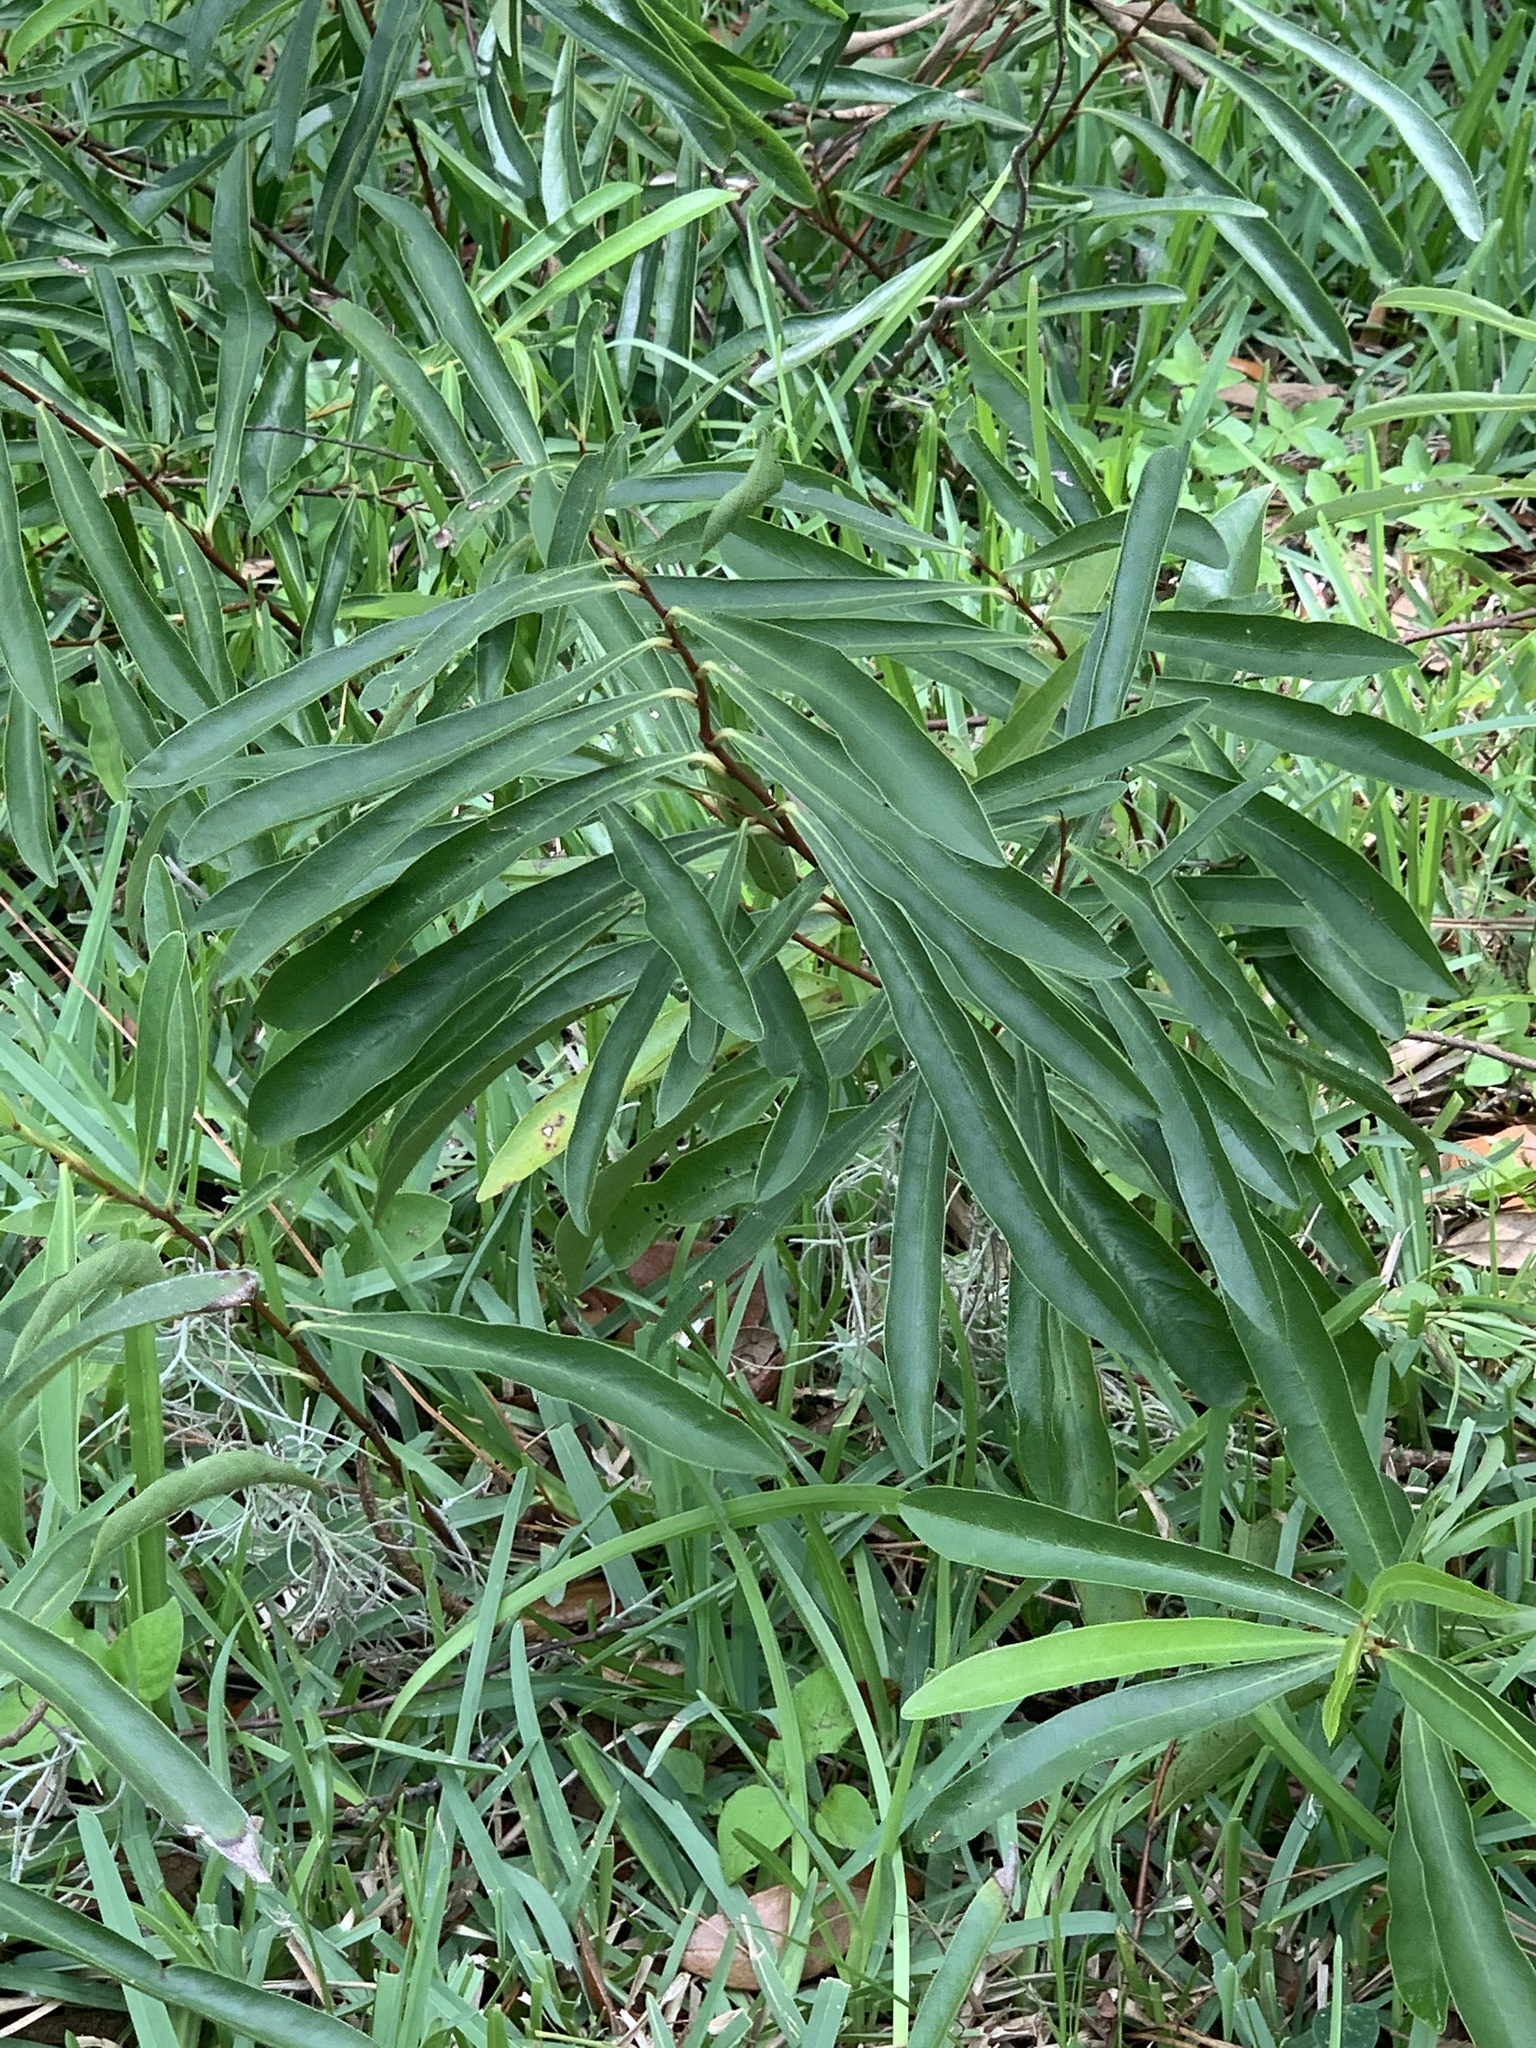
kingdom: Plantae
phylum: Tracheophyta
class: Magnoliopsida
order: Magnoliales
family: Annonaceae
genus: Asimina
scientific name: Asimina bethanyensis
